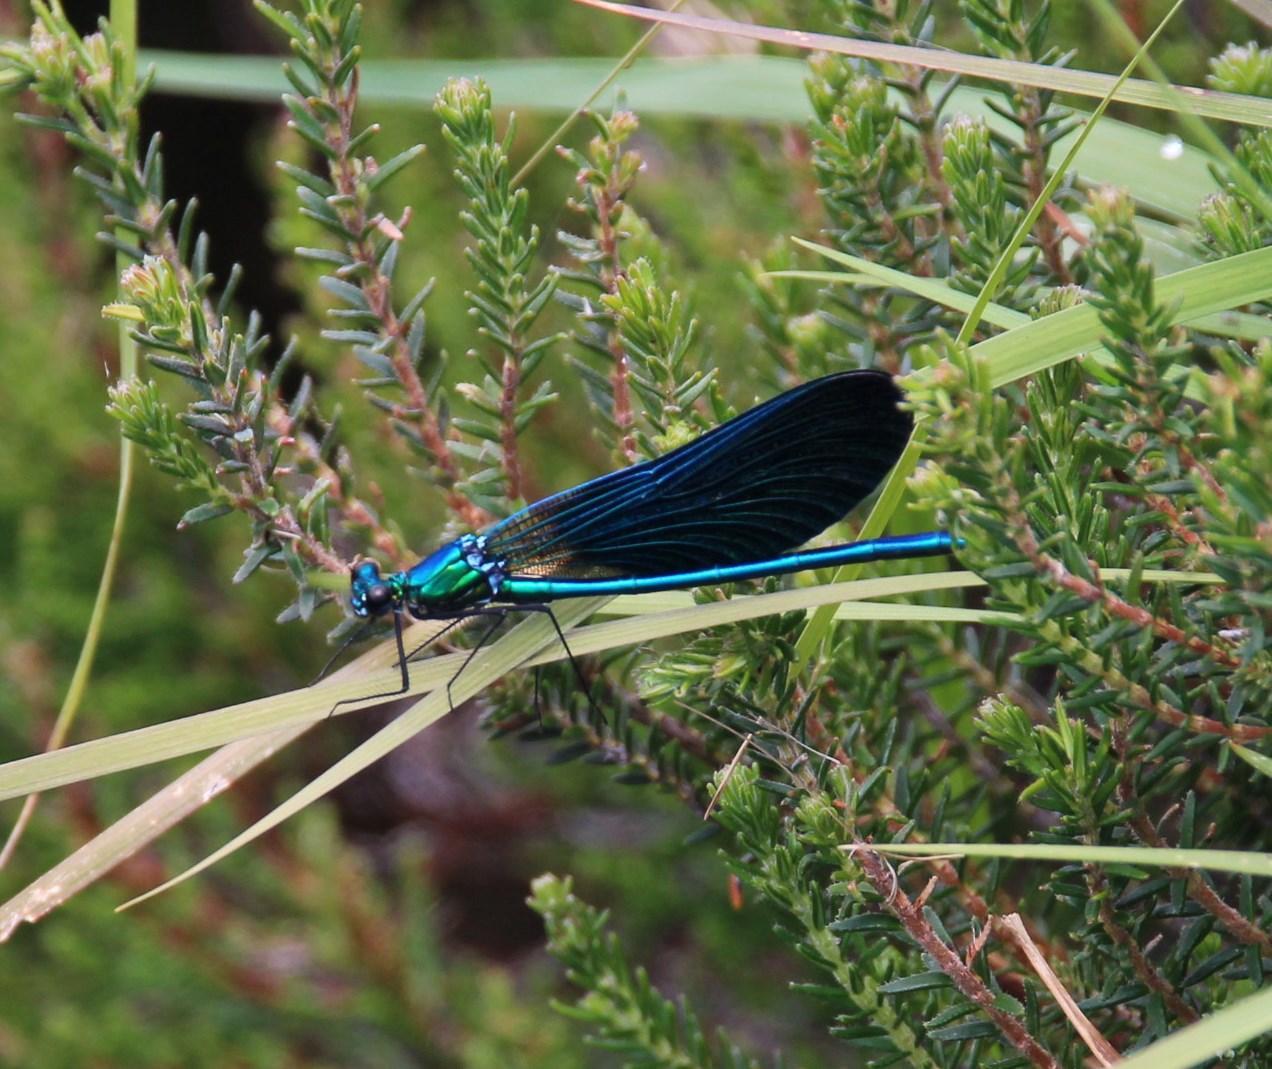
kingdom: Animalia
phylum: Arthropoda
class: Insecta
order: Odonata
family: Calopterygidae
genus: Calopteryx
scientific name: Calopteryx virgo
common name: Beautiful demoiselle
